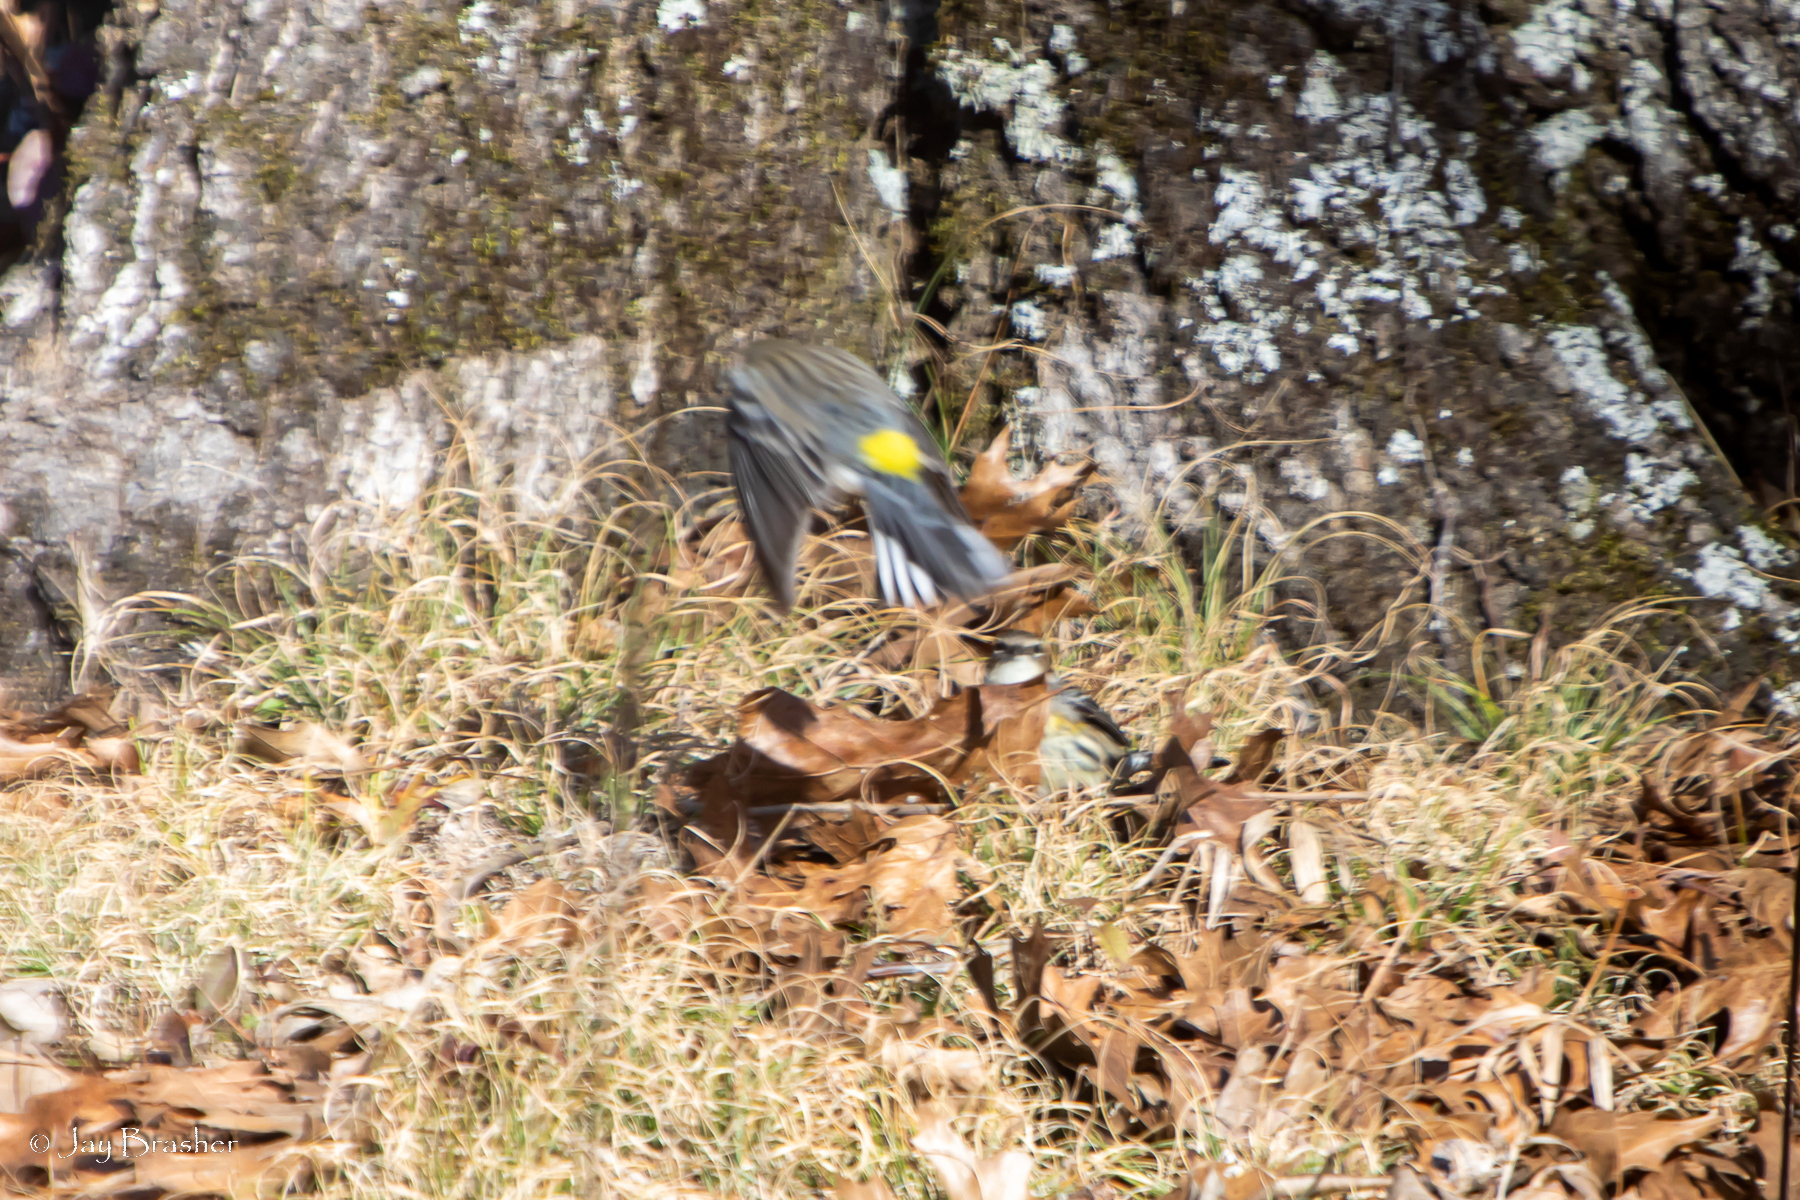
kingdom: Animalia
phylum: Chordata
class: Aves
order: Passeriformes
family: Parulidae
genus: Setophaga
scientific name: Setophaga coronata
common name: Myrtle warbler
